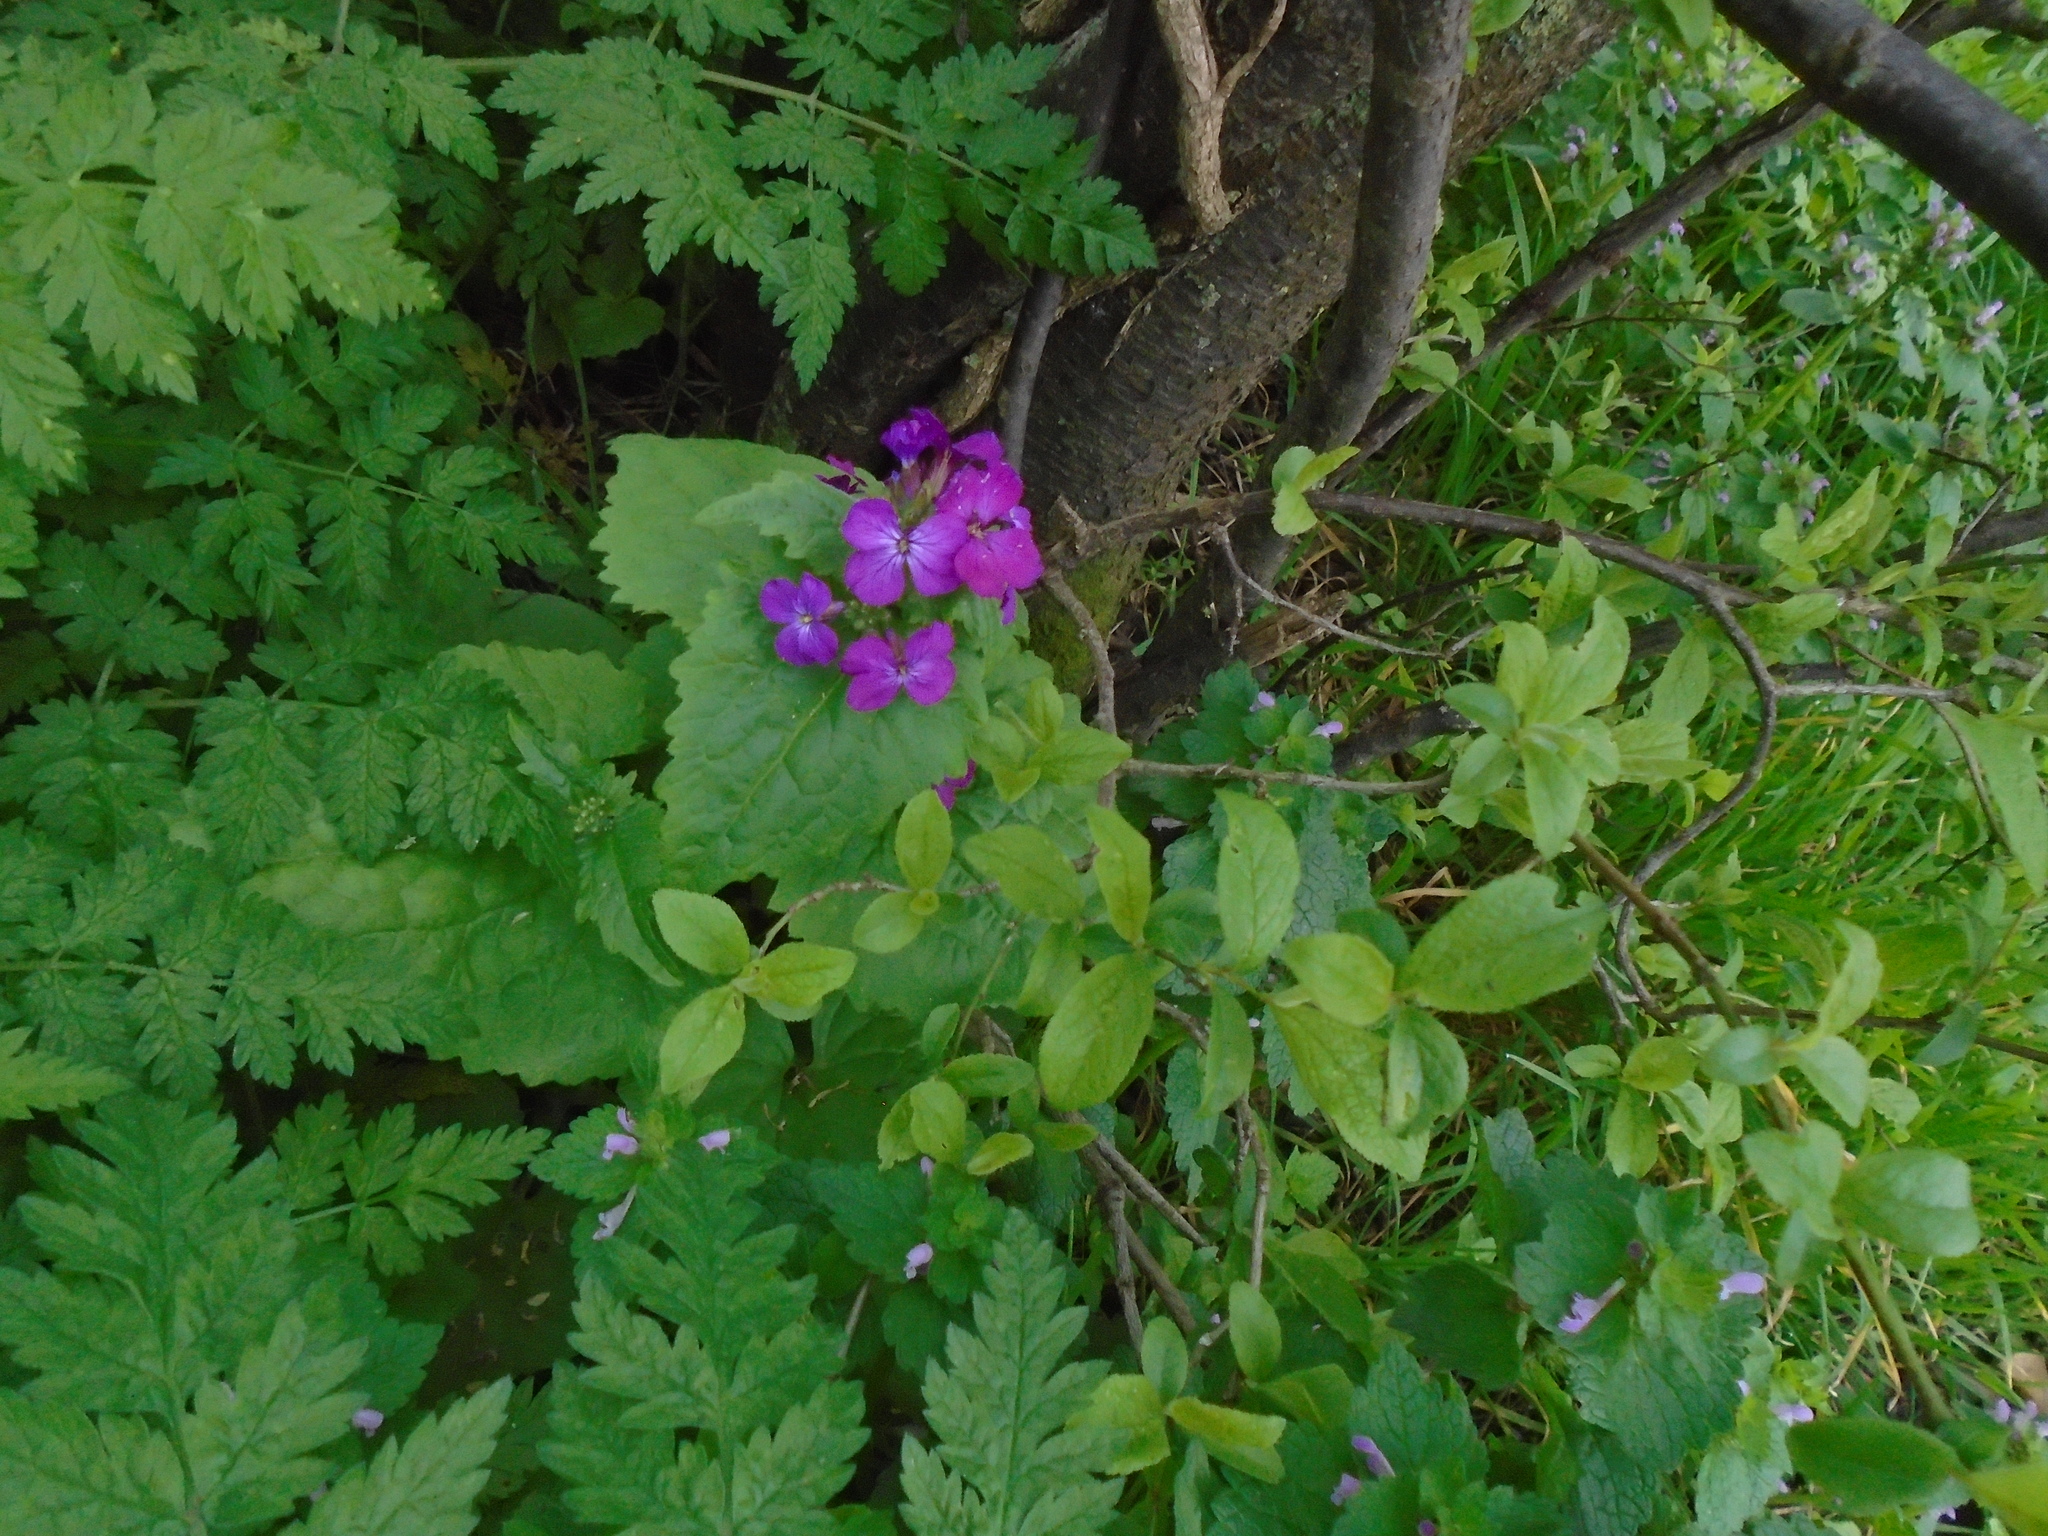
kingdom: Plantae
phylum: Tracheophyta
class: Magnoliopsida
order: Brassicales
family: Brassicaceae
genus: Lunaria
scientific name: Lunaria annua
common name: Honesty
